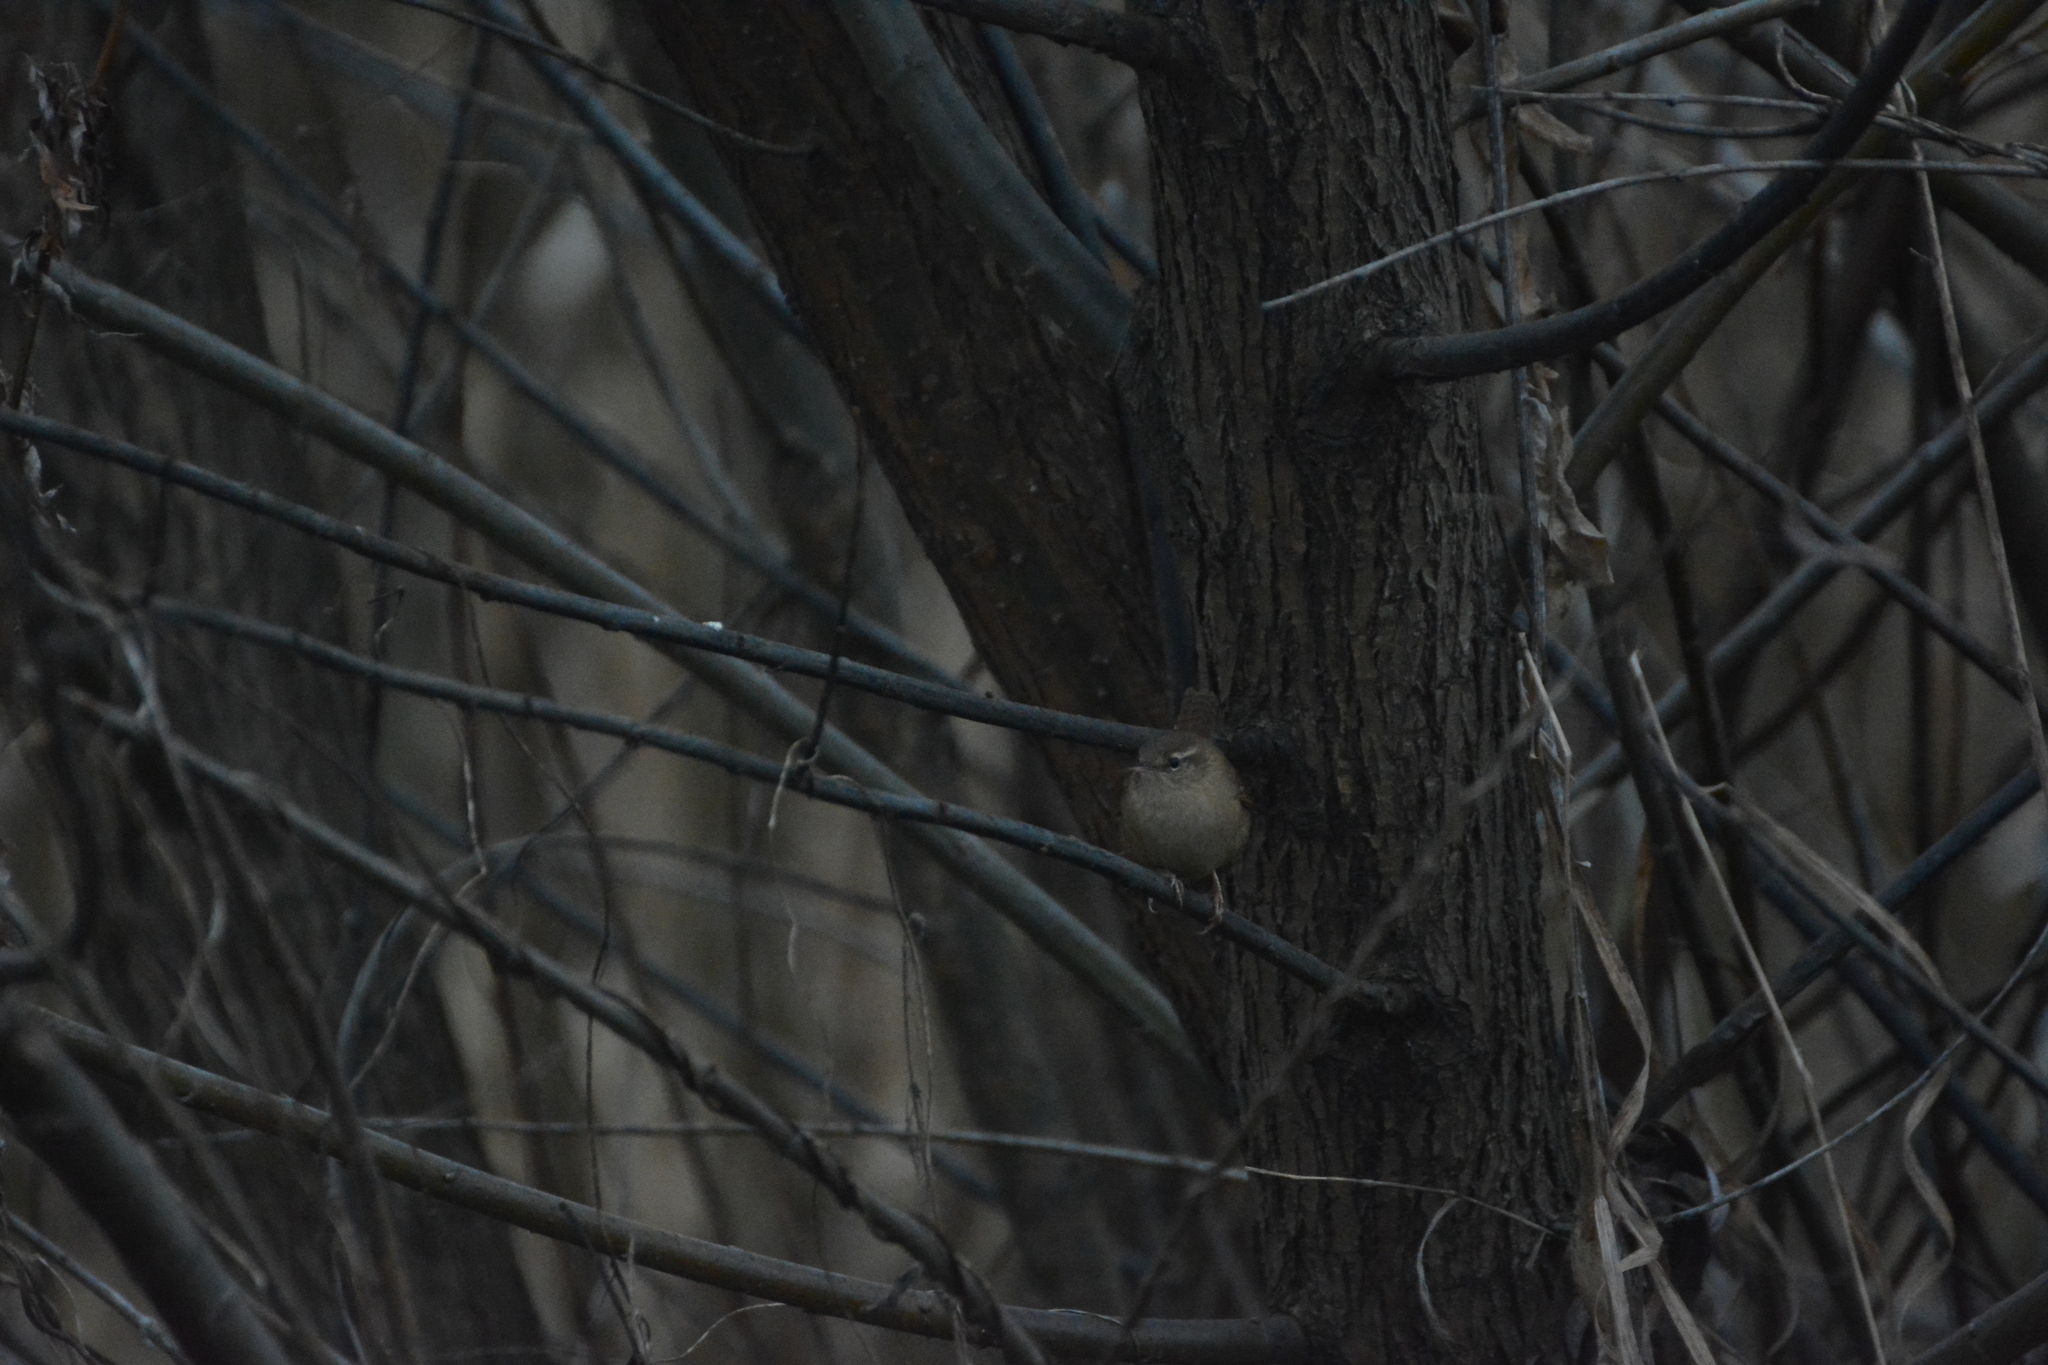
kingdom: Animalia
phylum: Chordata
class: Aves
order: Passeriformes
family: Troglodytidae
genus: Troglodytes
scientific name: Troglodytes troglodytes
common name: Eurasian wren
